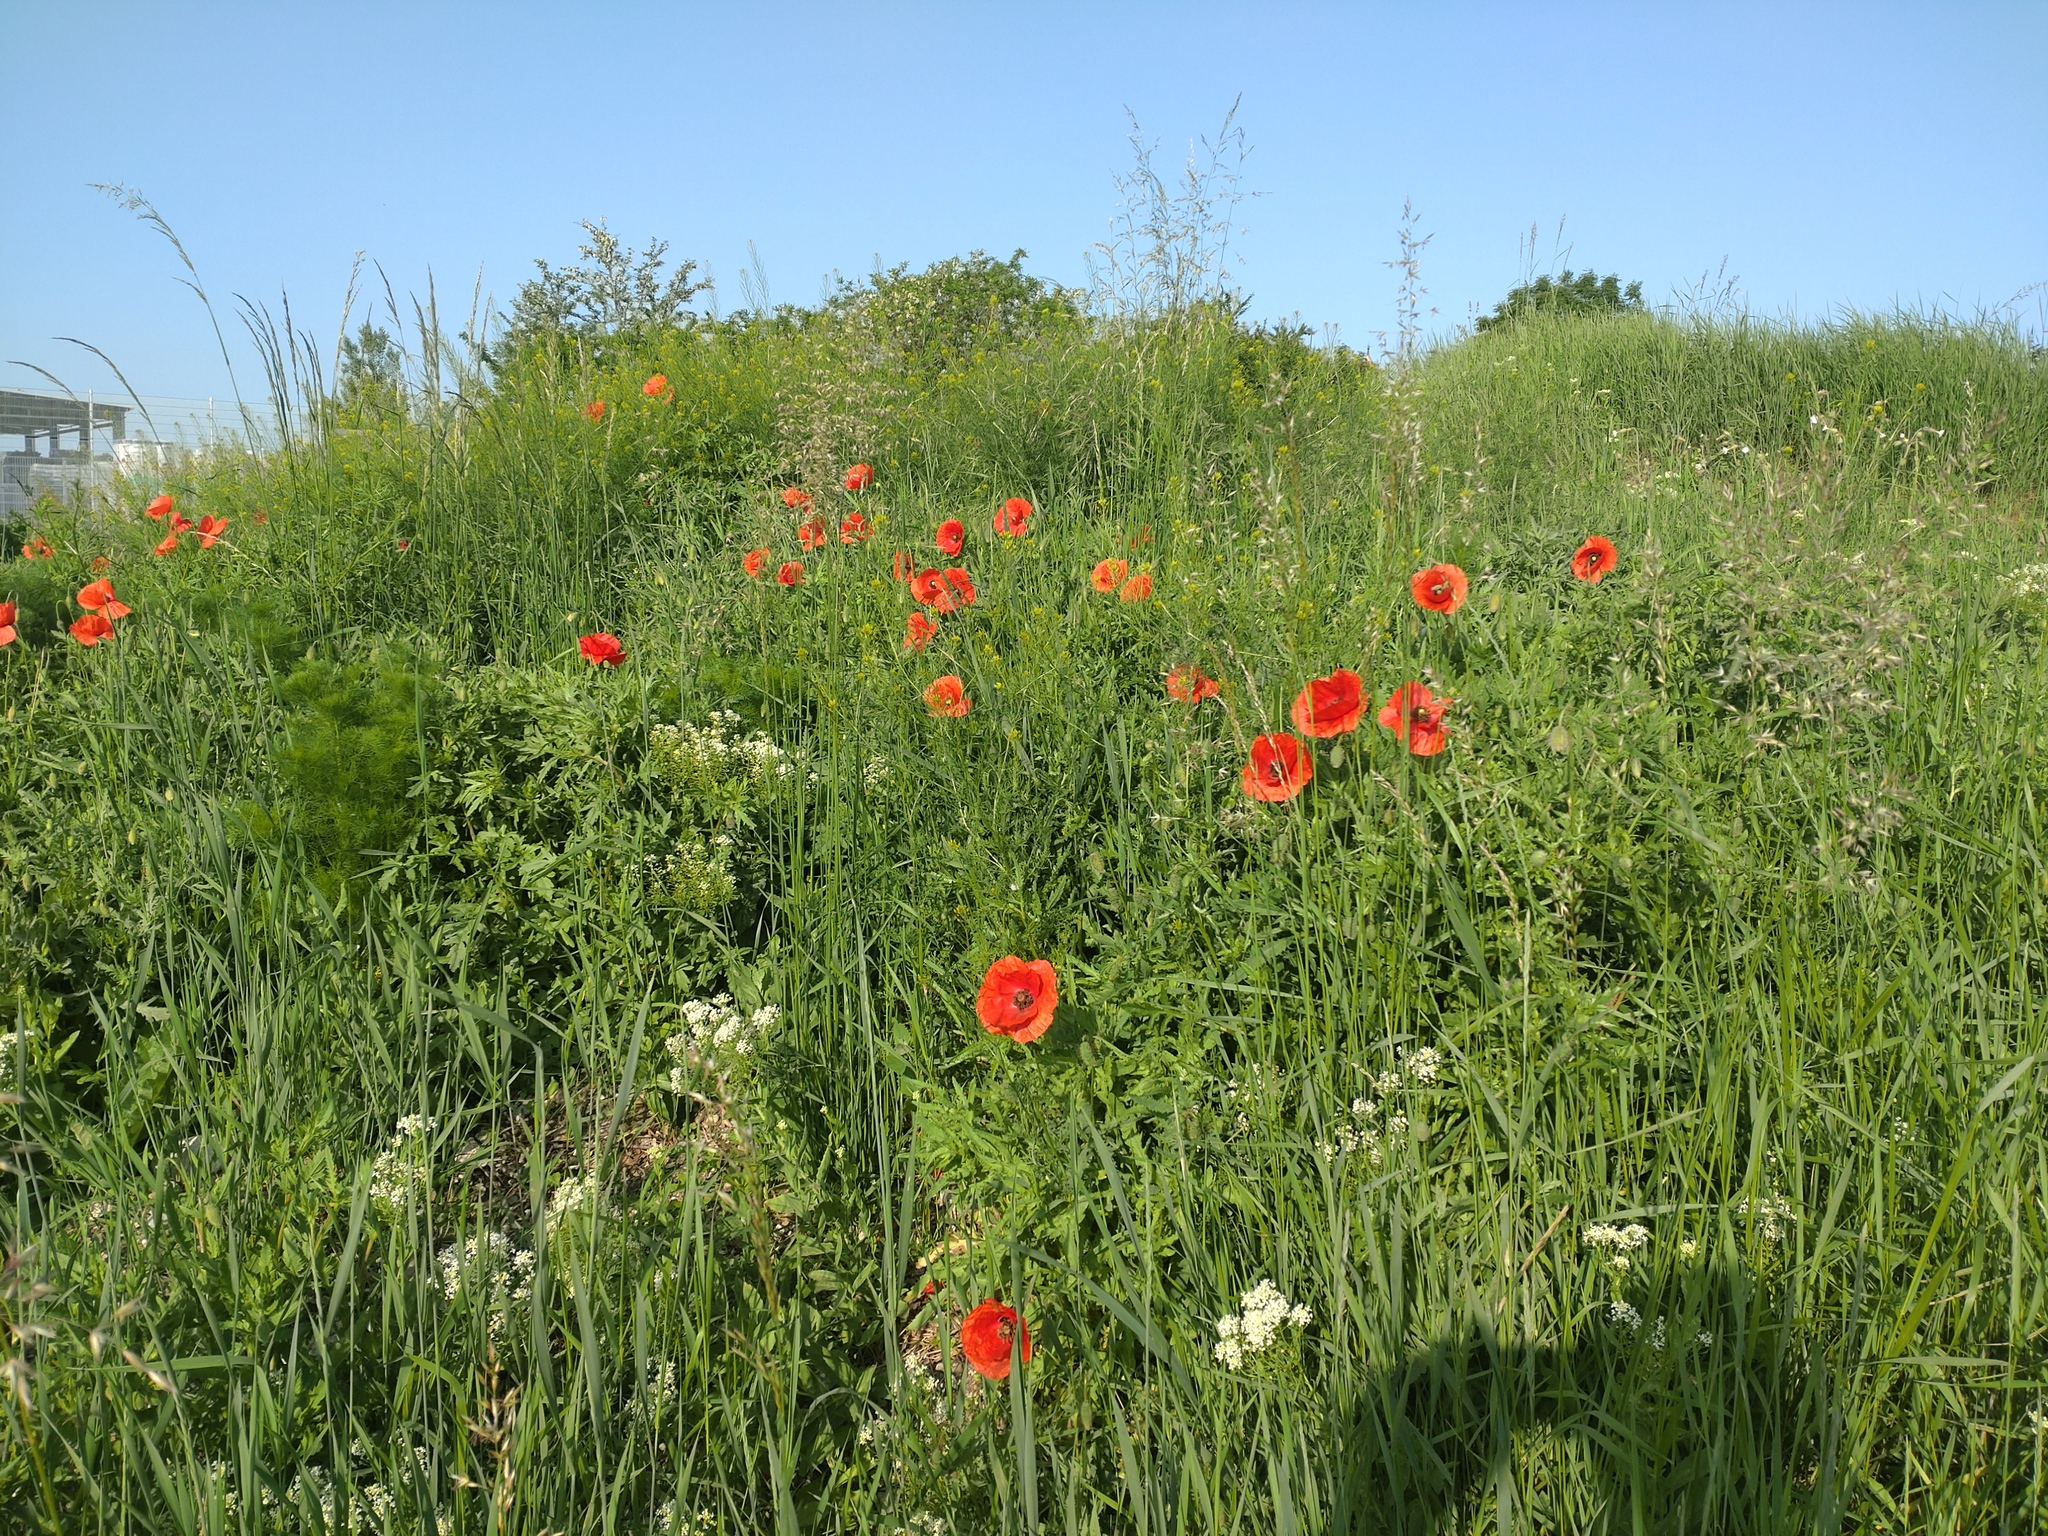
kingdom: Plantae
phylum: Tracheophyta
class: Magnoliopsida
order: Ranunculales
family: Papaveraceae
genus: Papaver
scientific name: Papaver rhoeas
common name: Corn poppy
